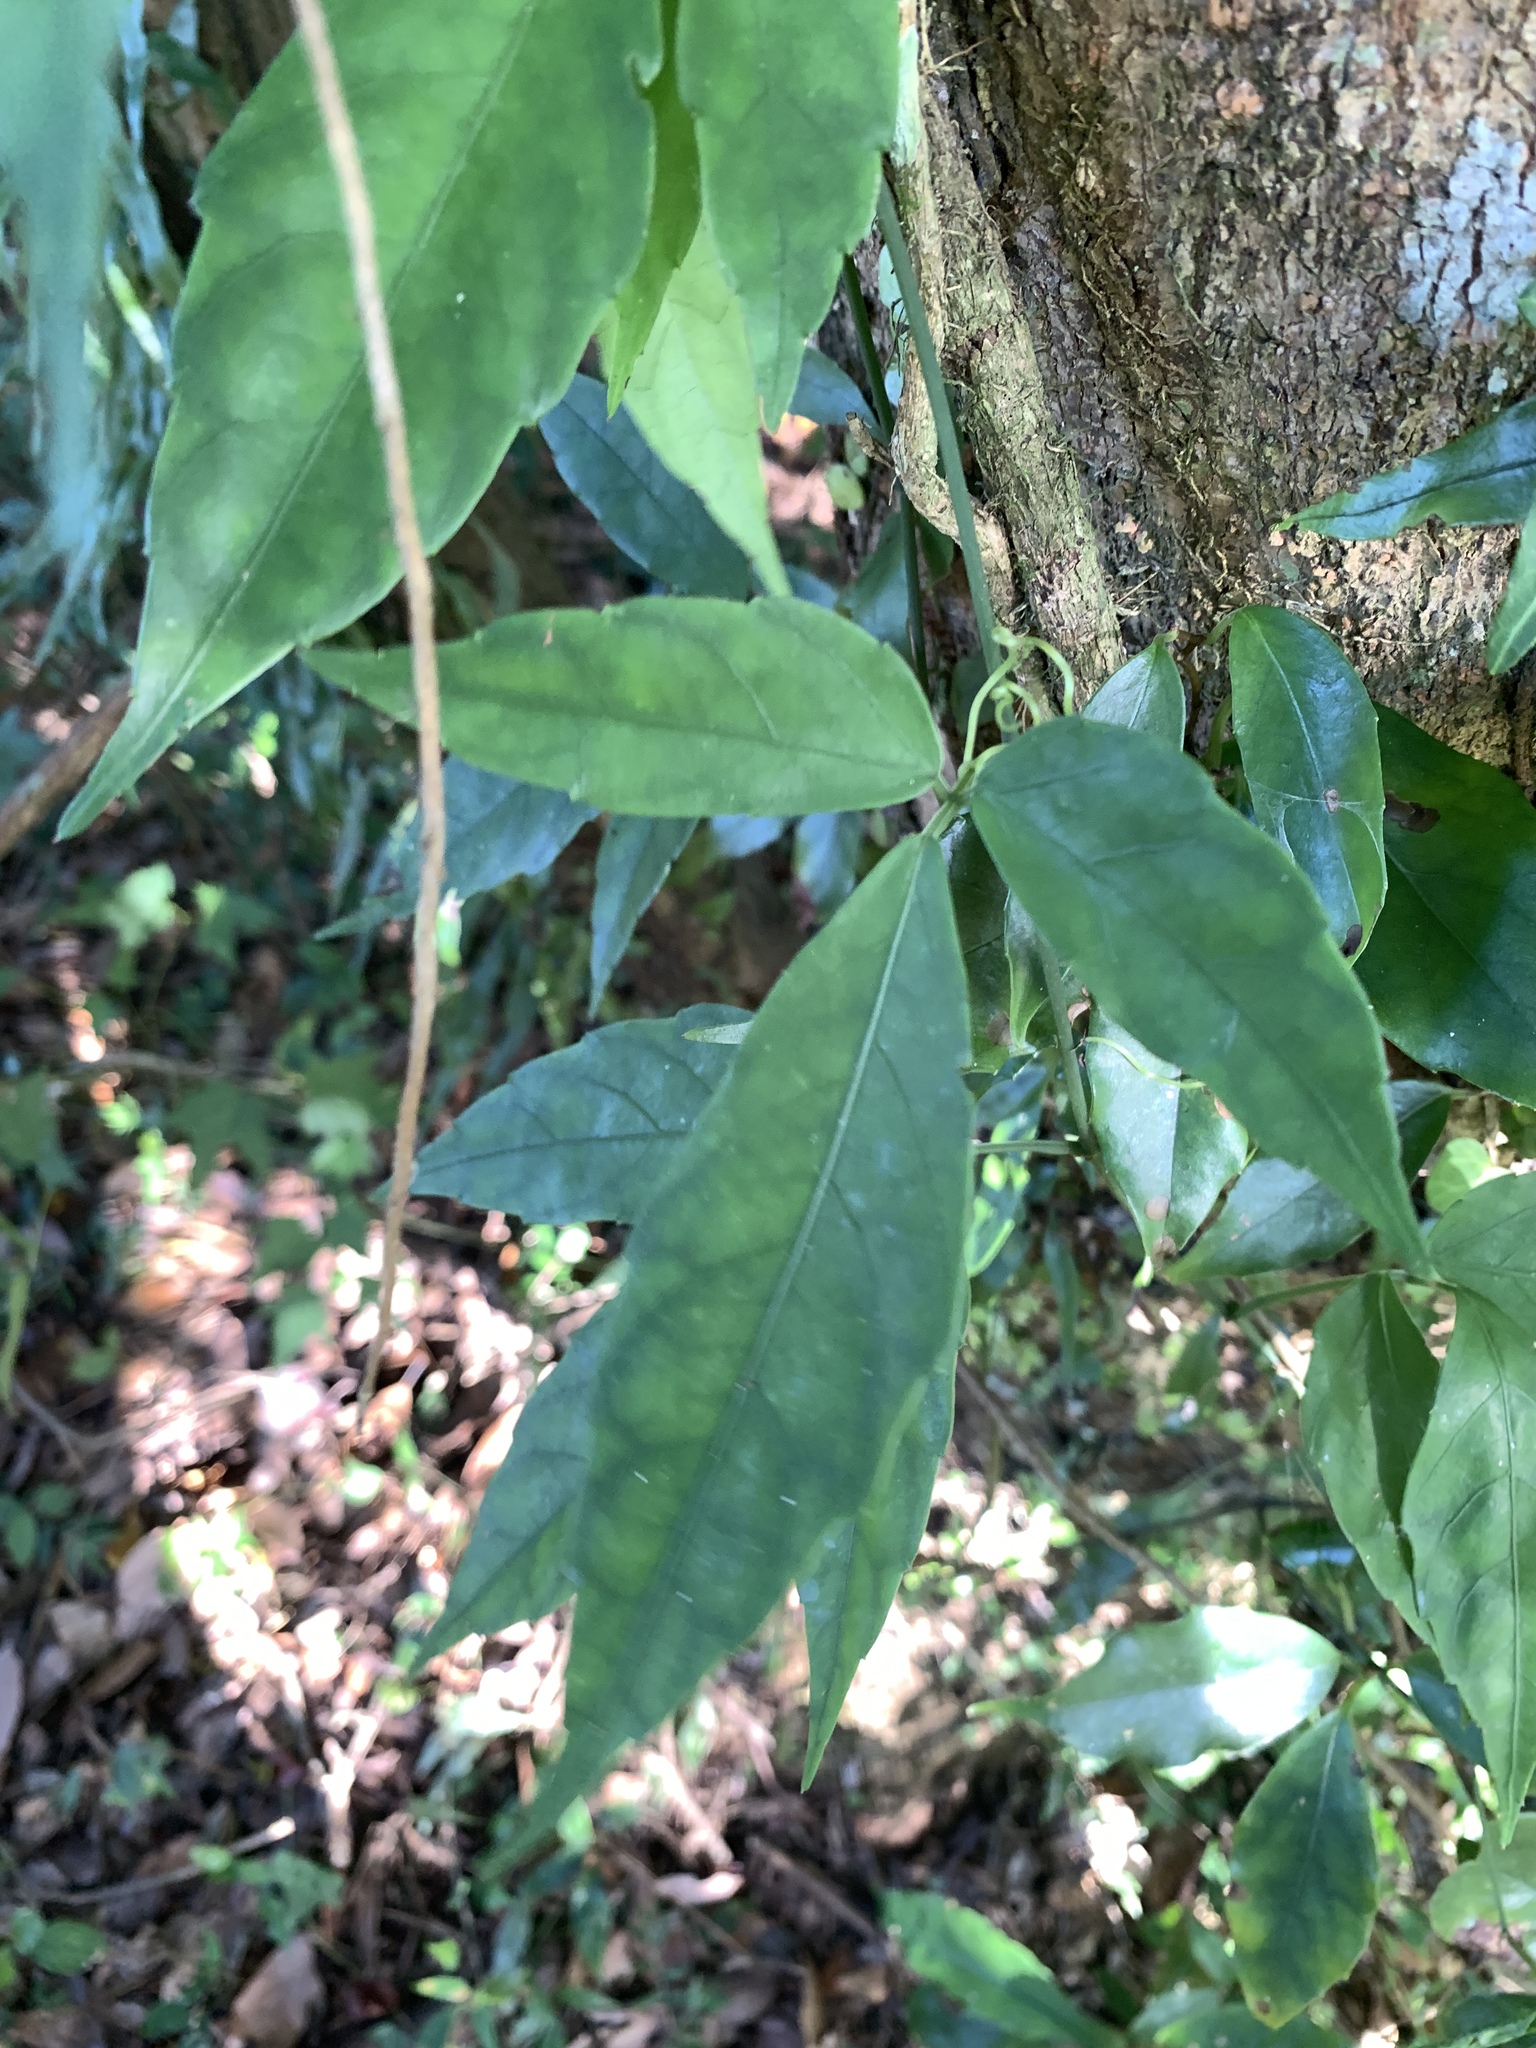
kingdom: Plantae
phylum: Tracheophyta
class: Magnoliopsida
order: Vitales
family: Vitaceae
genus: Tetrastigma
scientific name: Tetrastigma hemsleyanum
